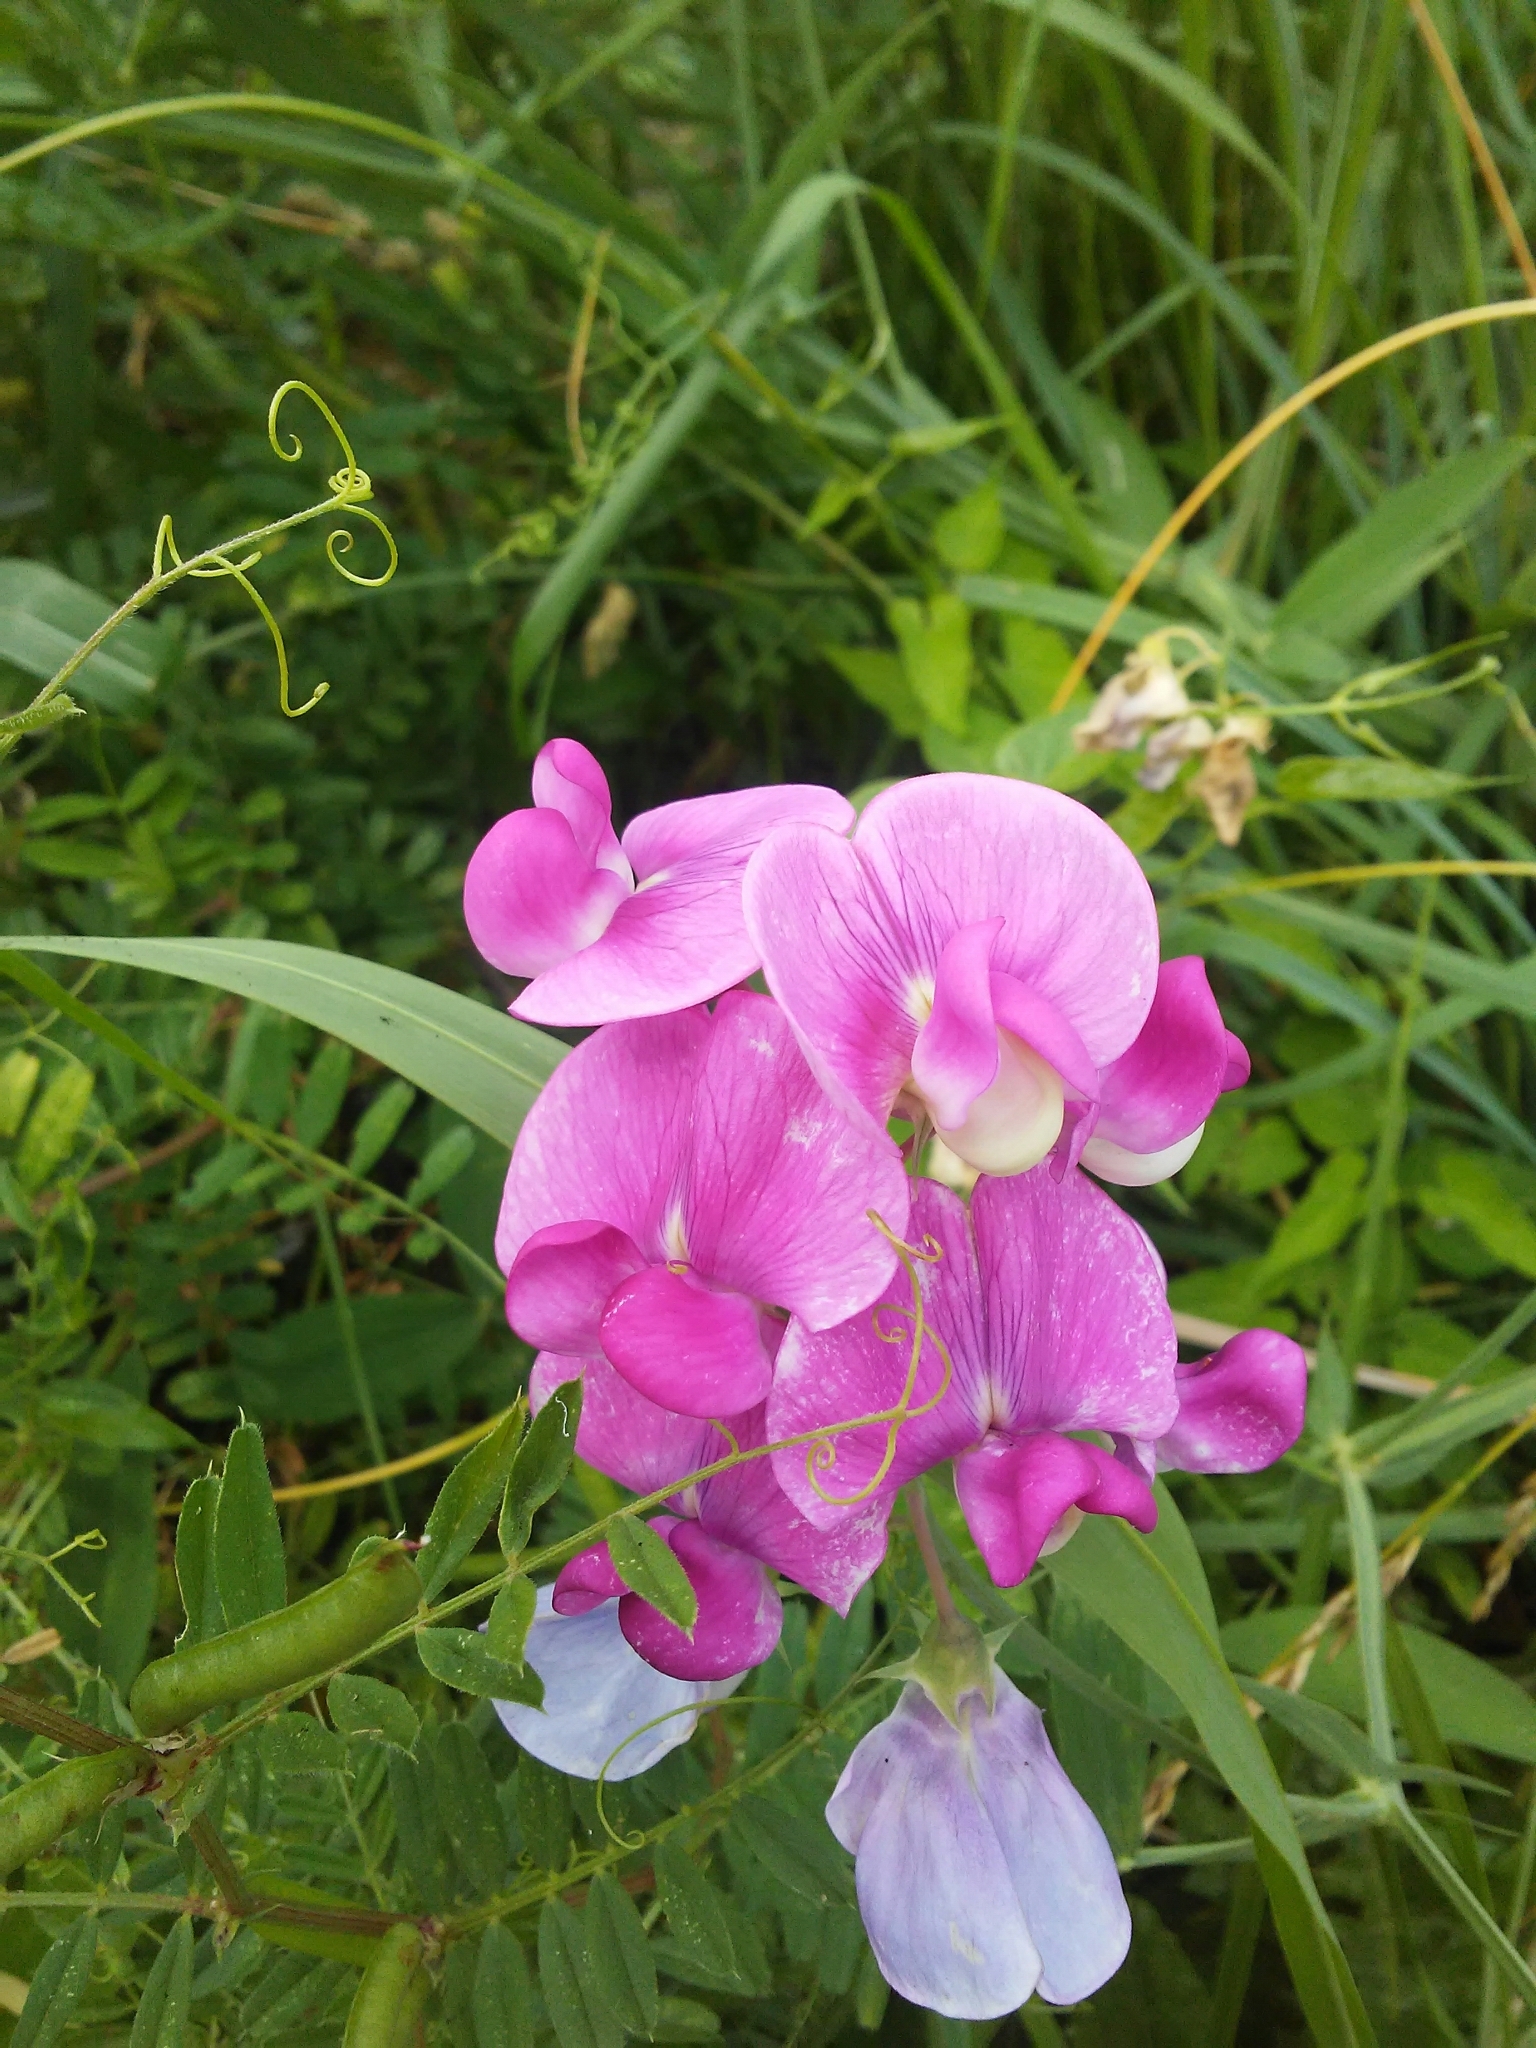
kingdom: Plantae
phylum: Tracheophyta
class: Magnoliopsida
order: Fabales
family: Fabaceae
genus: Lathyrus
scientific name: Lathyrus latifolius
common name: Perennial pea
